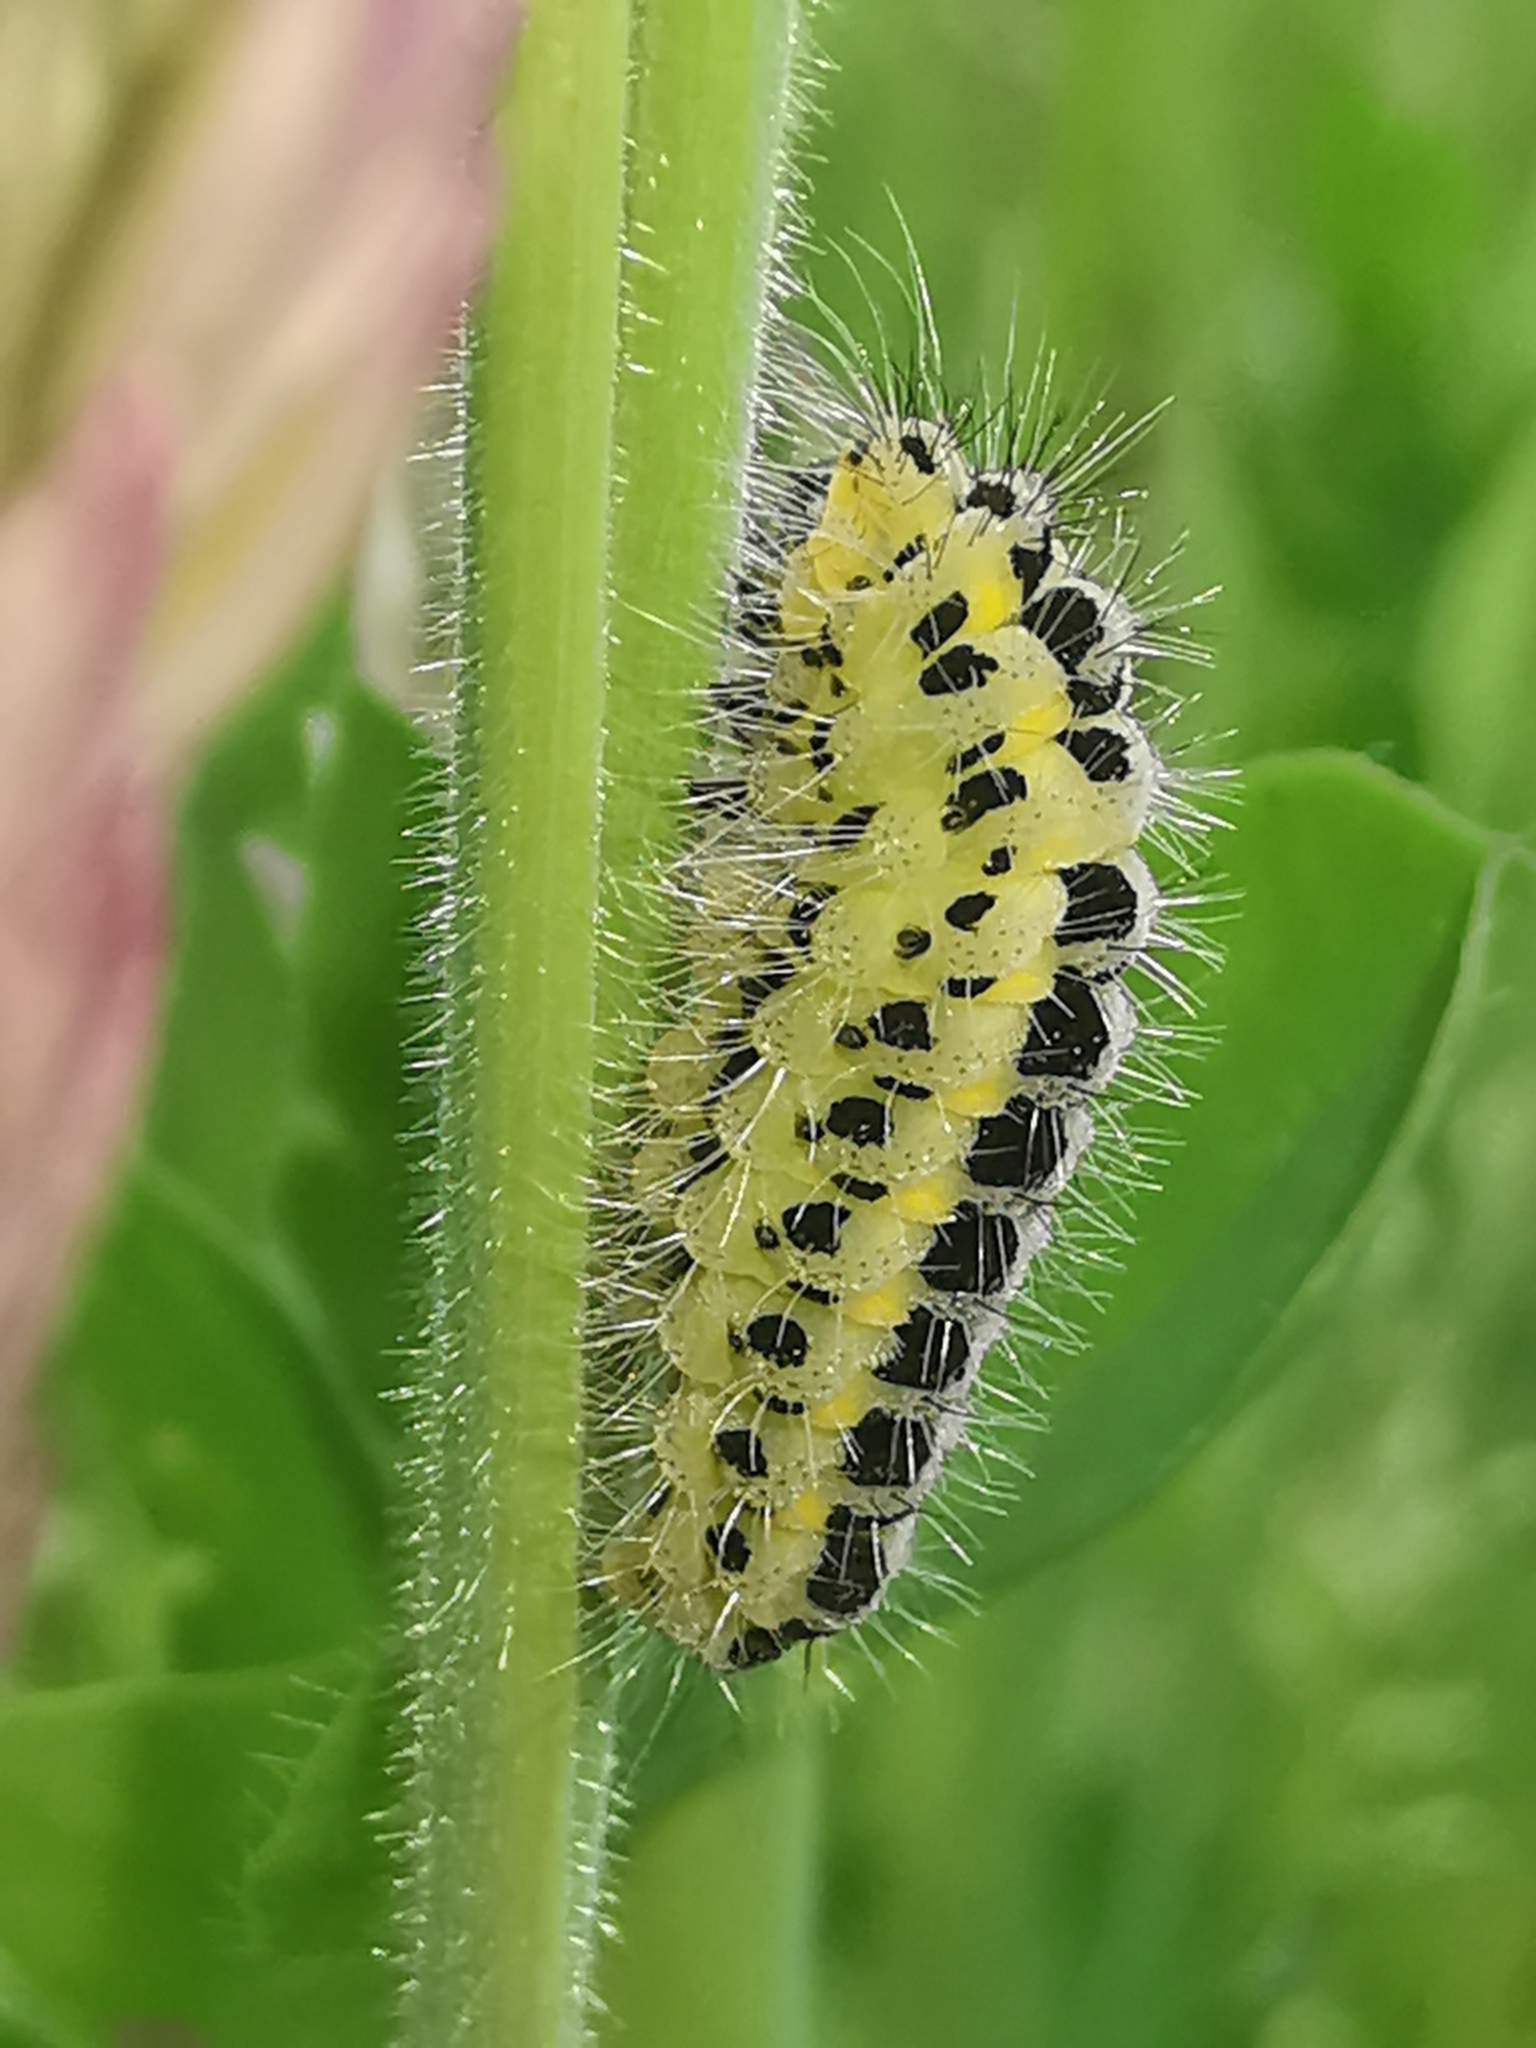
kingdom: Animalia
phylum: Arthropoda
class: Insecta
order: Lepidoptera
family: Zygaenidae
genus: Zygaena
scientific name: Zygaena lonicerae
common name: Narrow-bordered five-spot burnet
